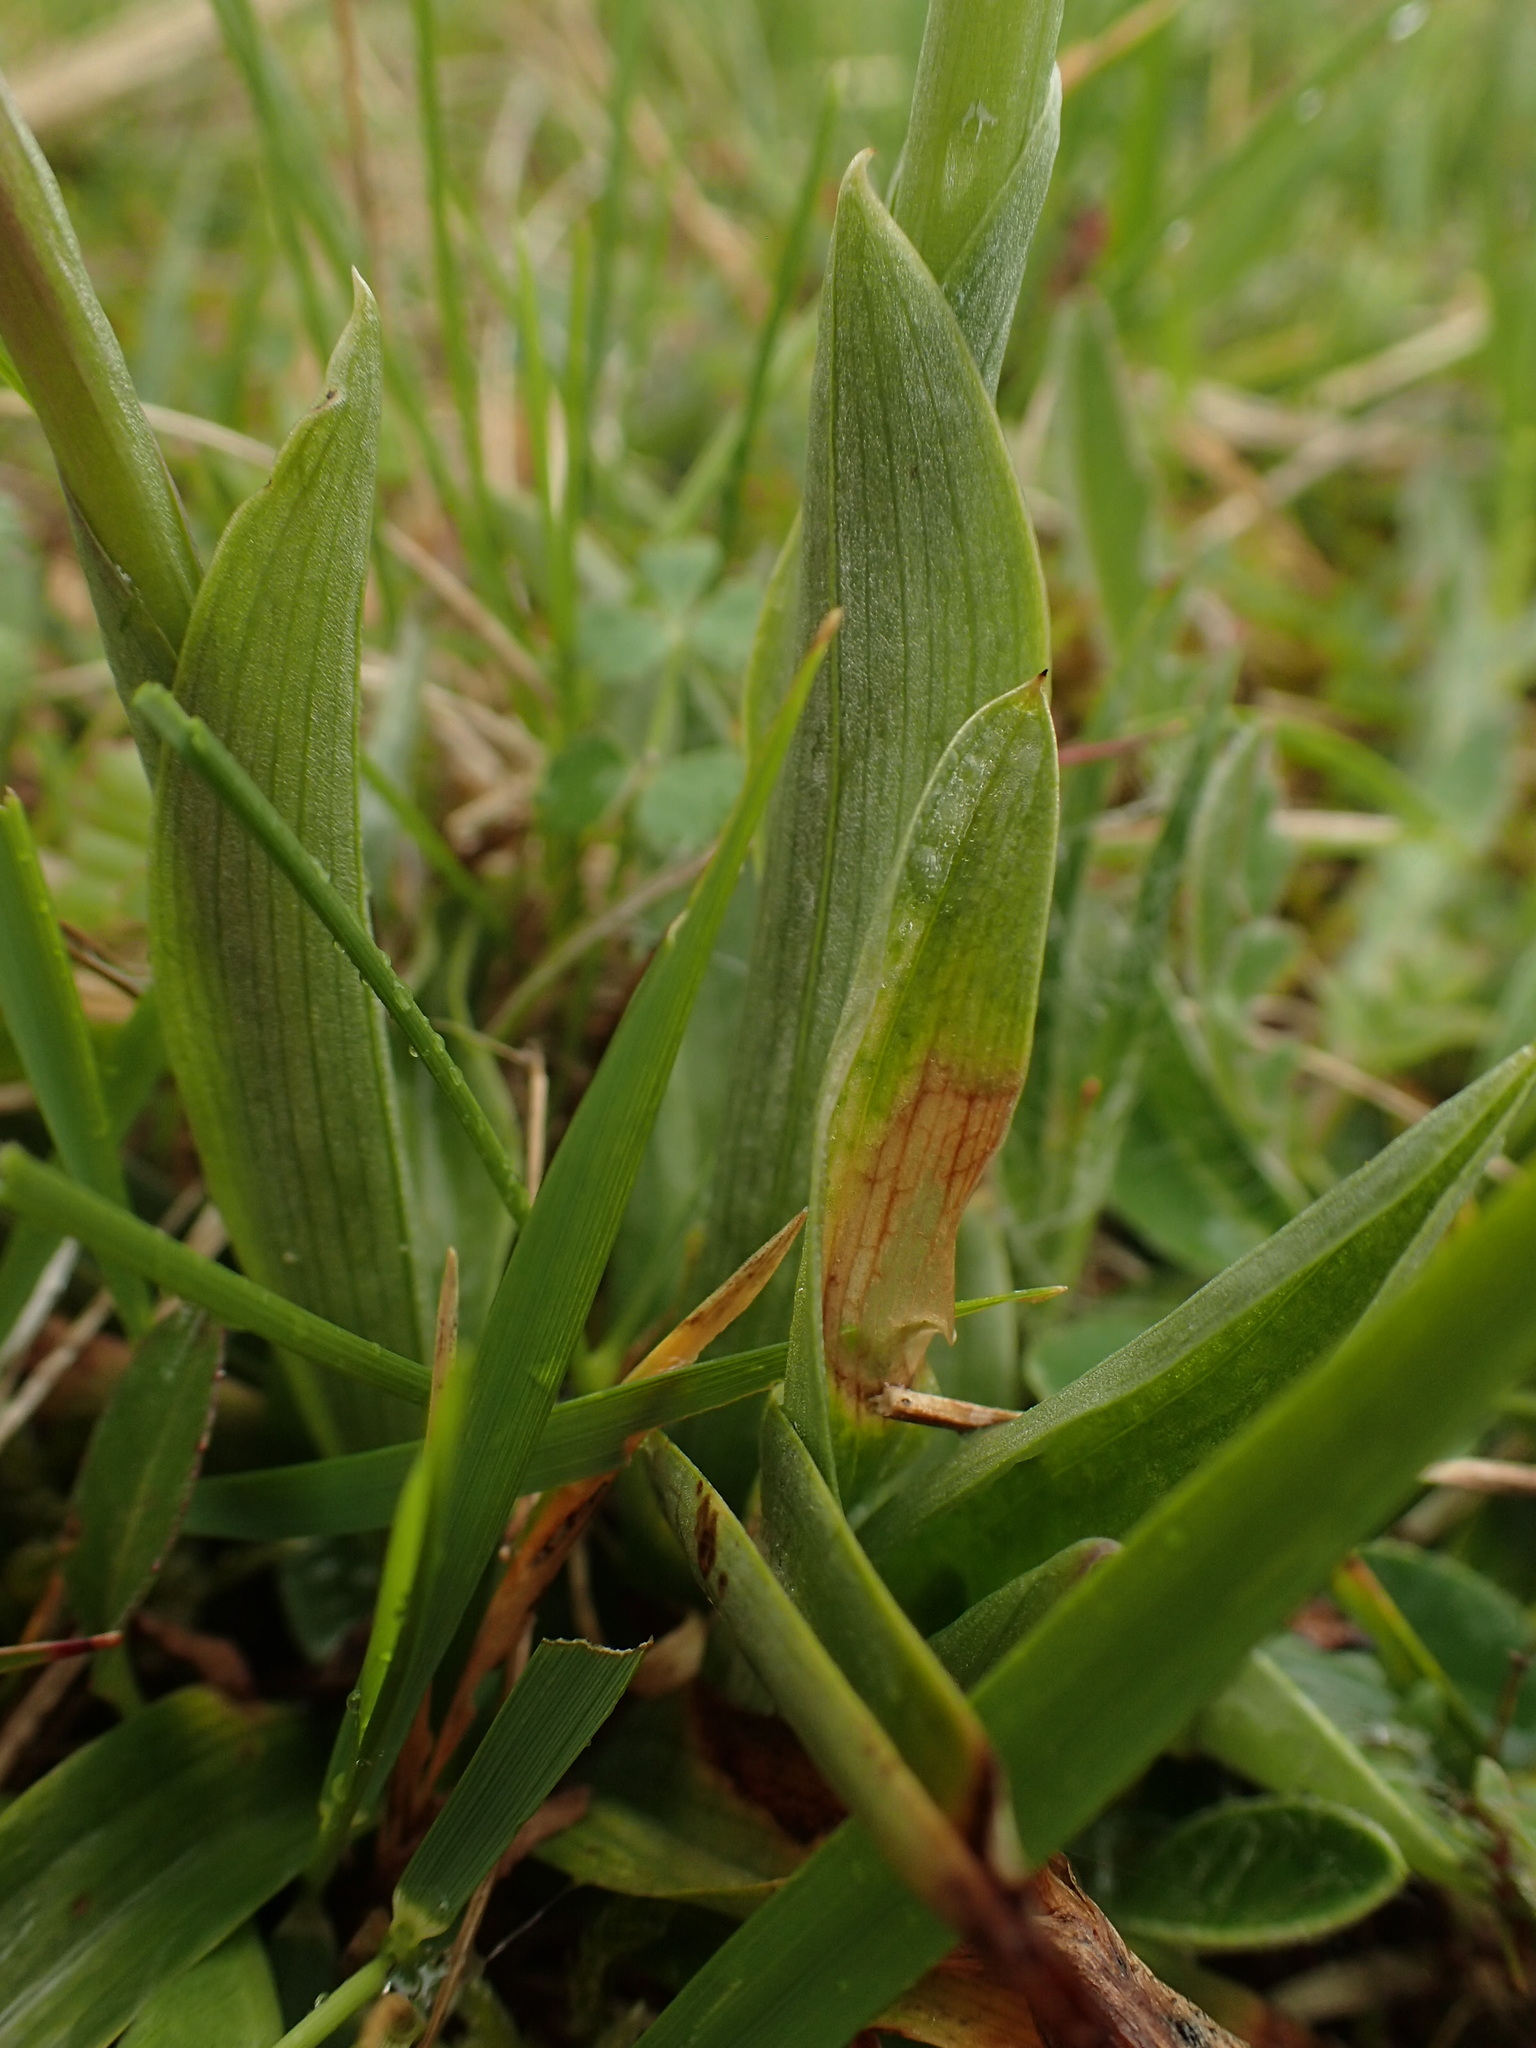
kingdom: Plantae
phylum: Tracheophyta
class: Liliopsida
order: Asparagales
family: Orchidaceae
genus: Anacamptis
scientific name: Anacamptis morio
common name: Green-winged orchid
